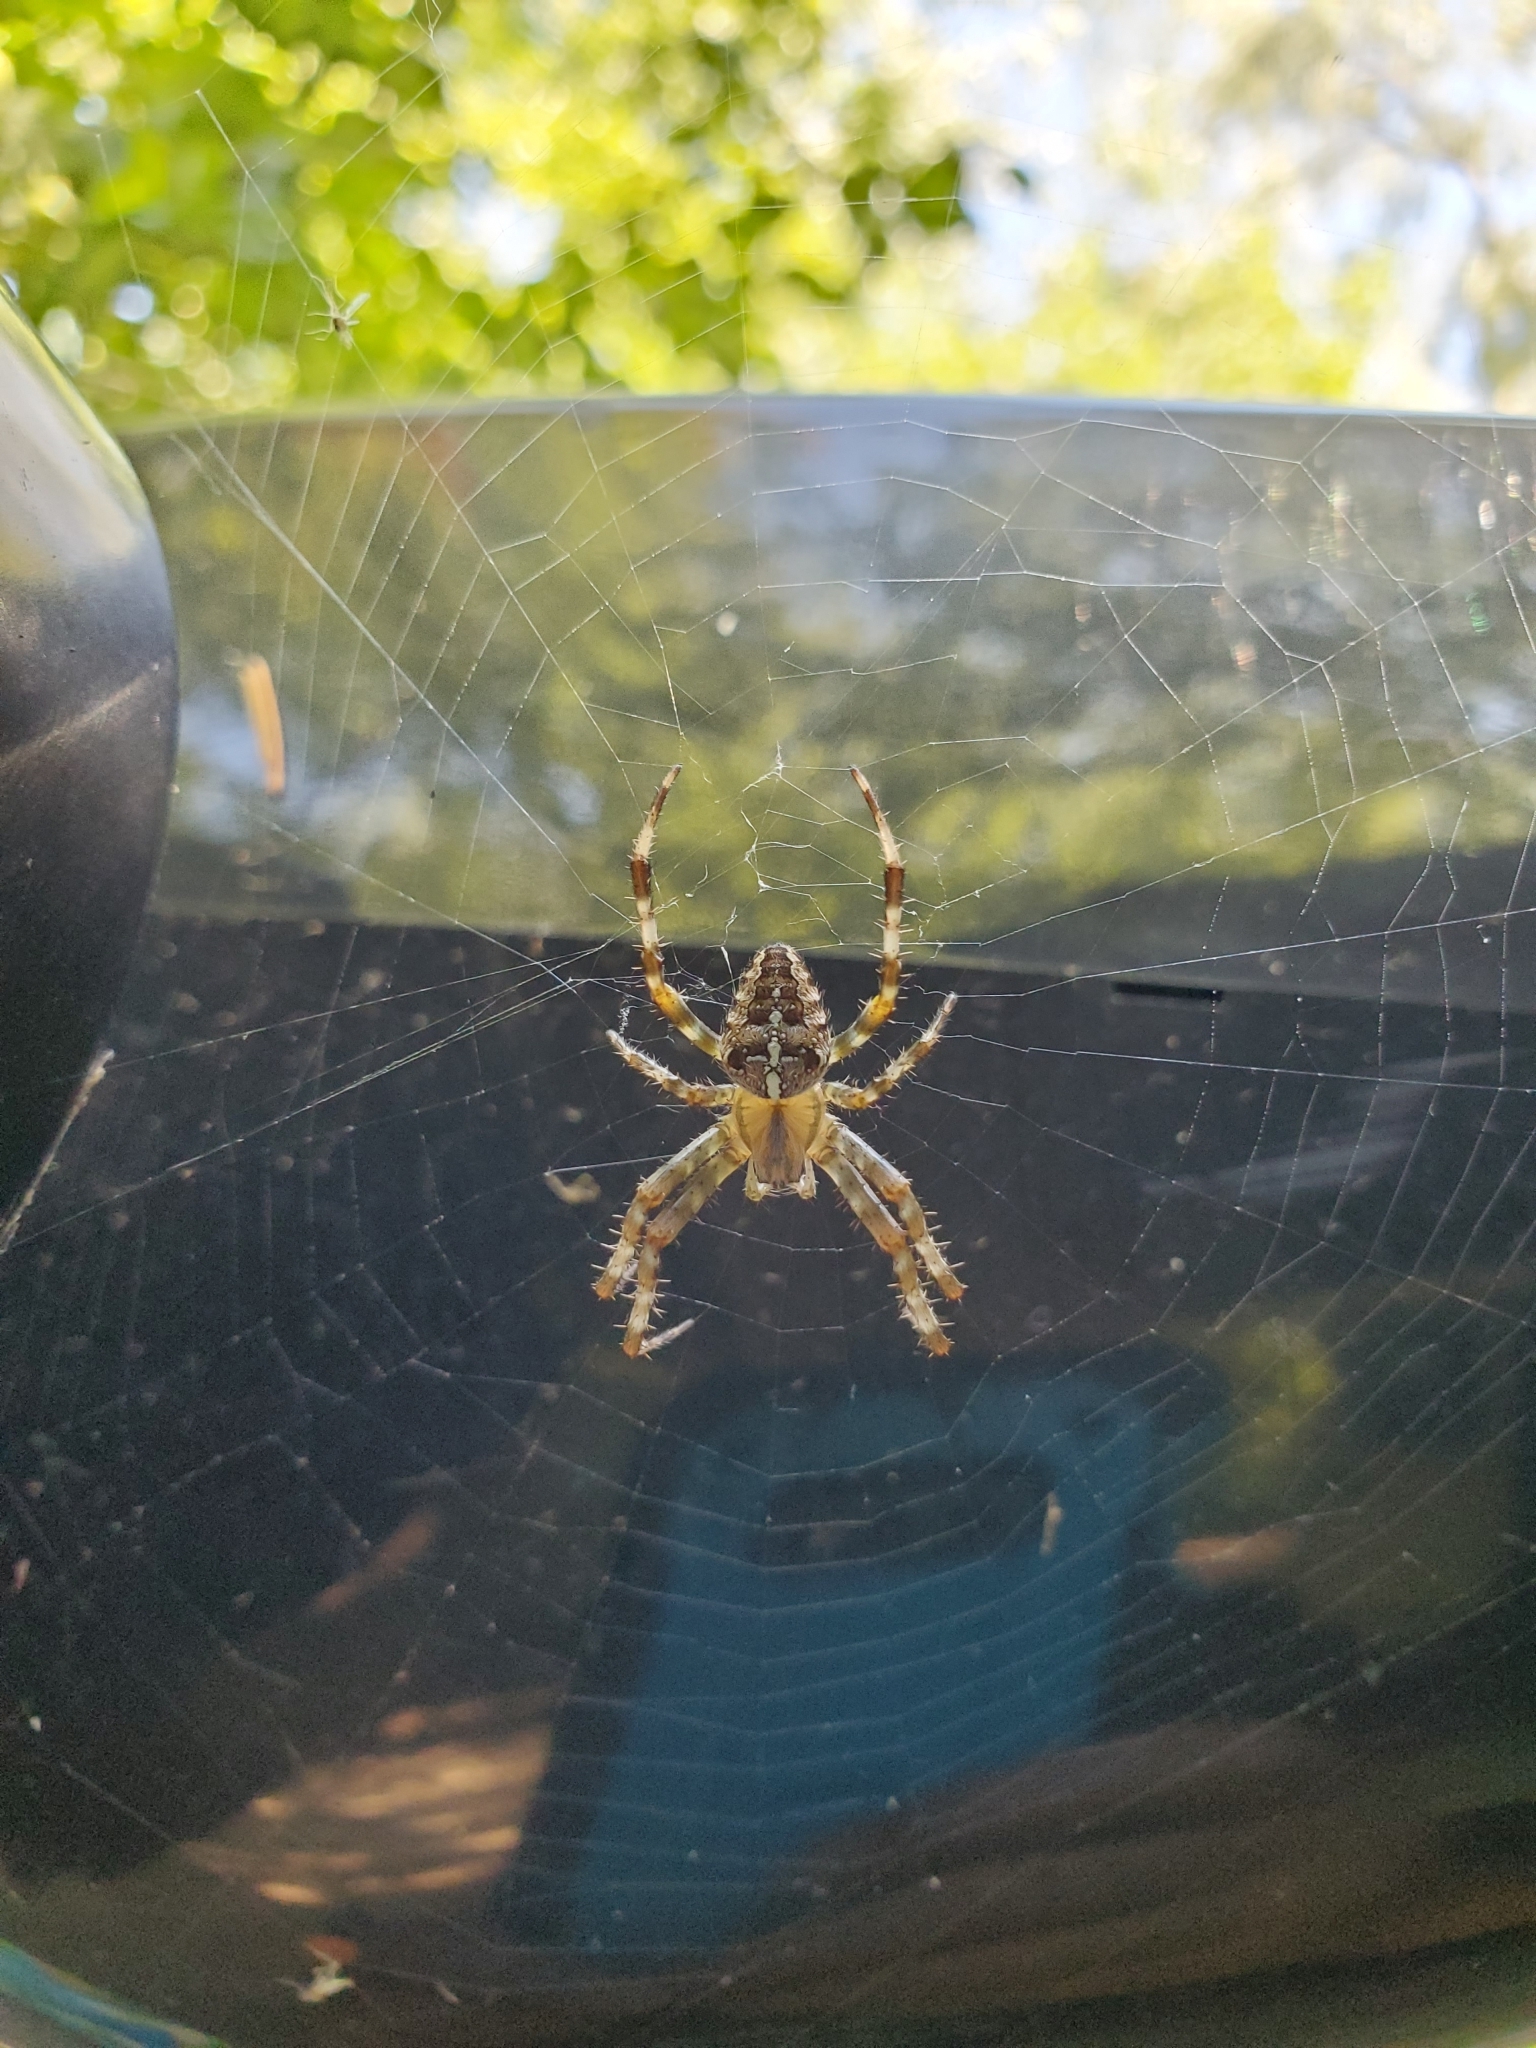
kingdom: Animalia
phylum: Arthropoda
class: Arachnida
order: Araneae
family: Araneidae
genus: Araneus
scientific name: Araneus diadematus
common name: Cross orbweaver
